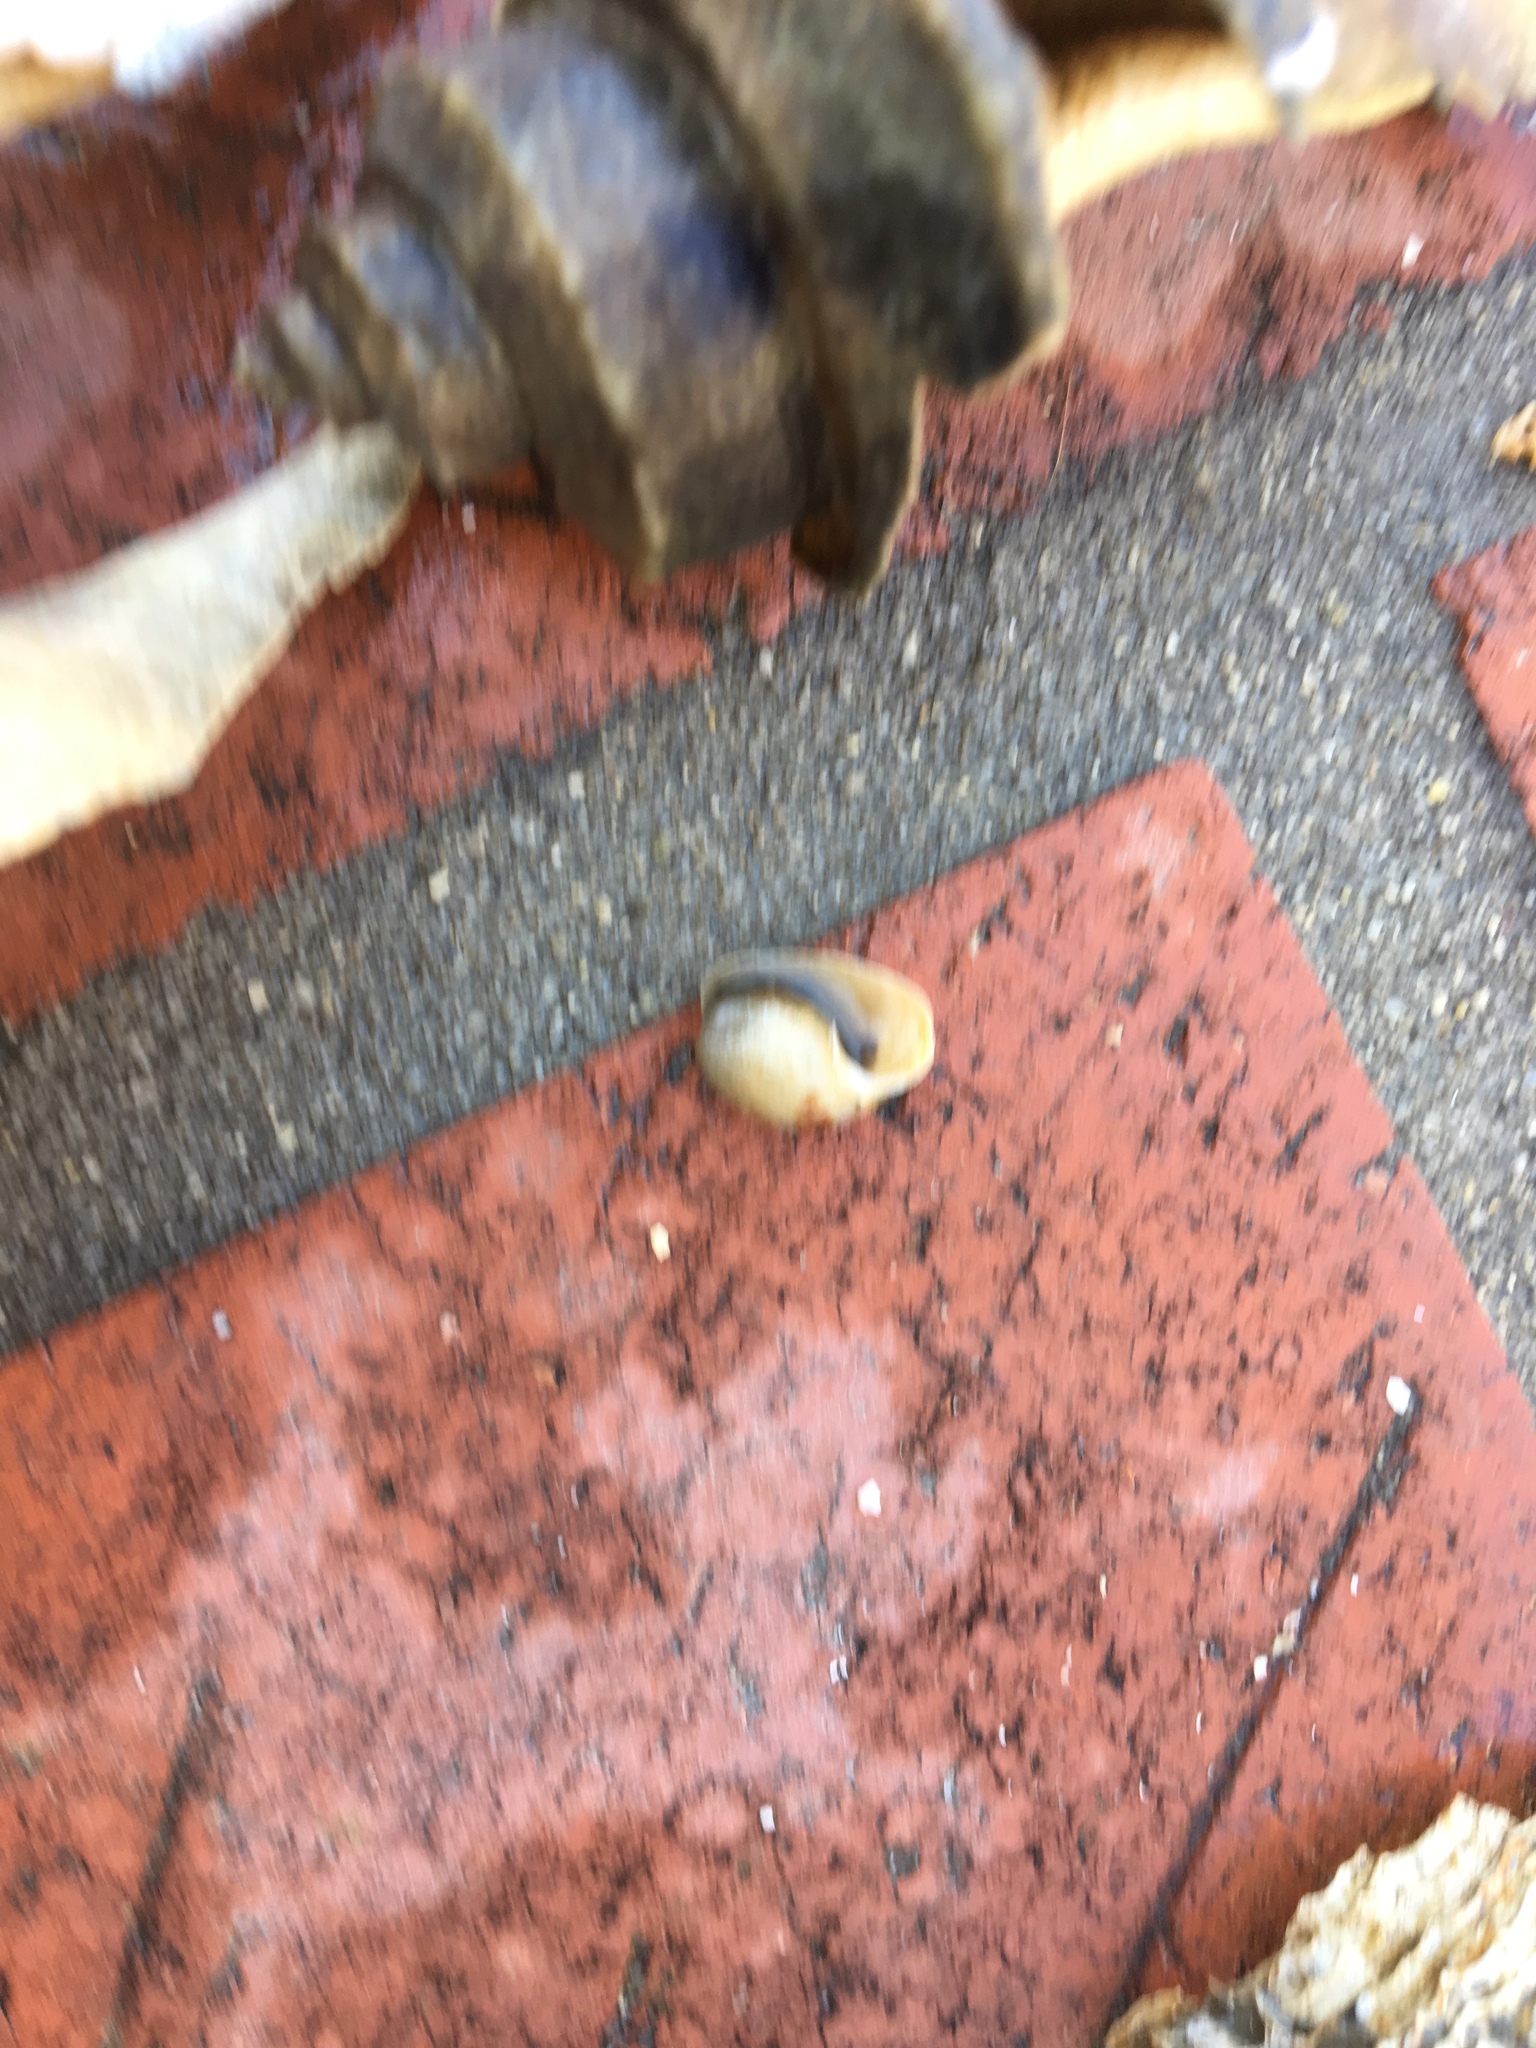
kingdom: Animalia
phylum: Mollusca
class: Gastropoda
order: Cephalaspidea
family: Haminoeidae
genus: Haloa
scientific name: Haloa japonica
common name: Japanese bubble snail
